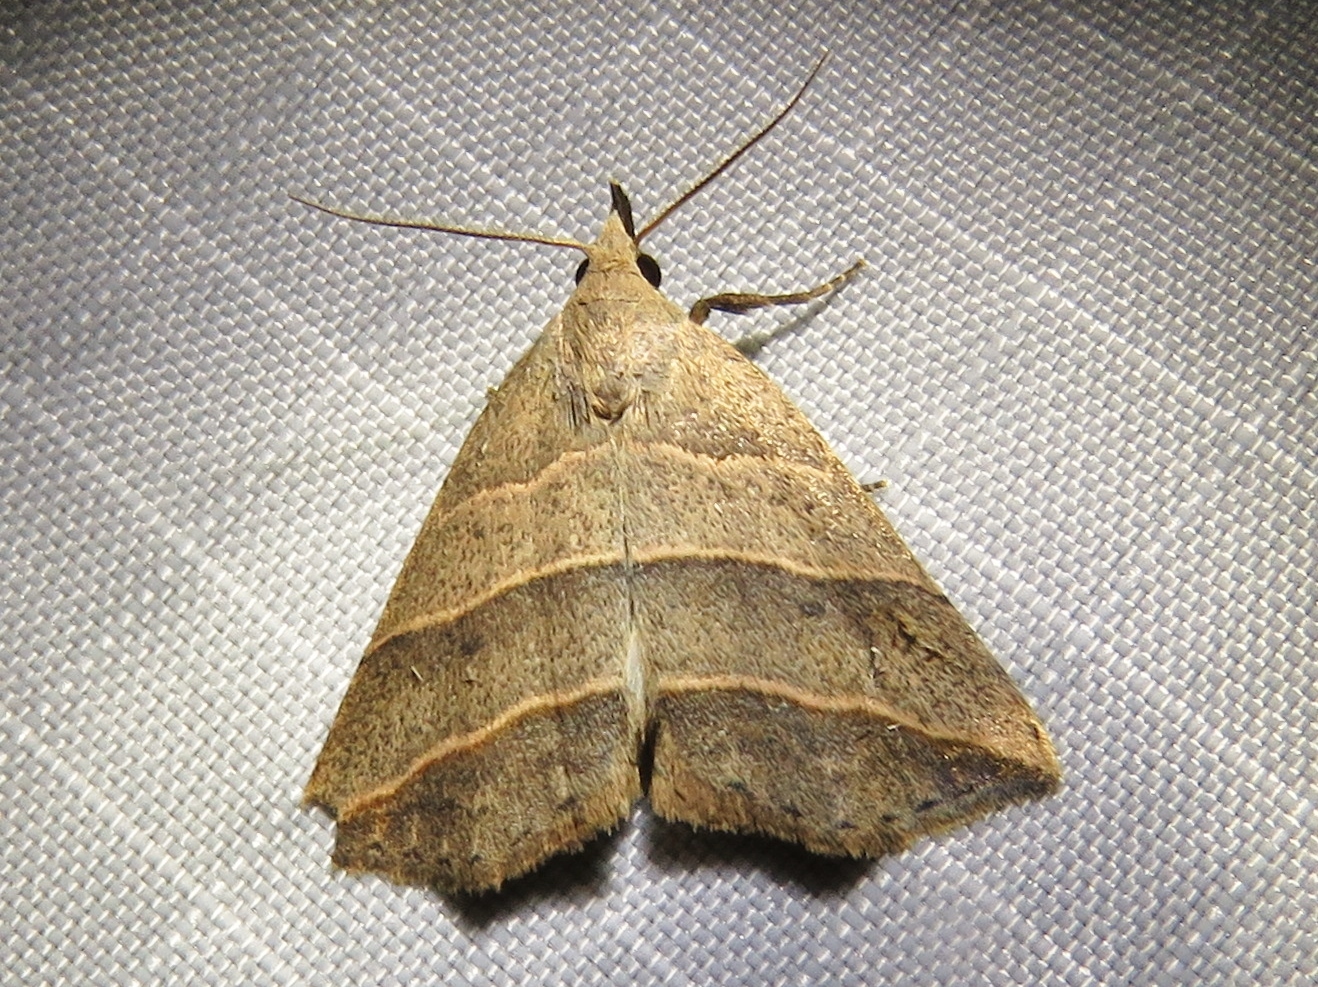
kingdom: Animalia
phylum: Arthropoda
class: Insecta
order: Lepidoptera
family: Erebidae
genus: Colobochyla
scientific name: Colobochyla interpuncta
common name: Yellow-lined owlet
